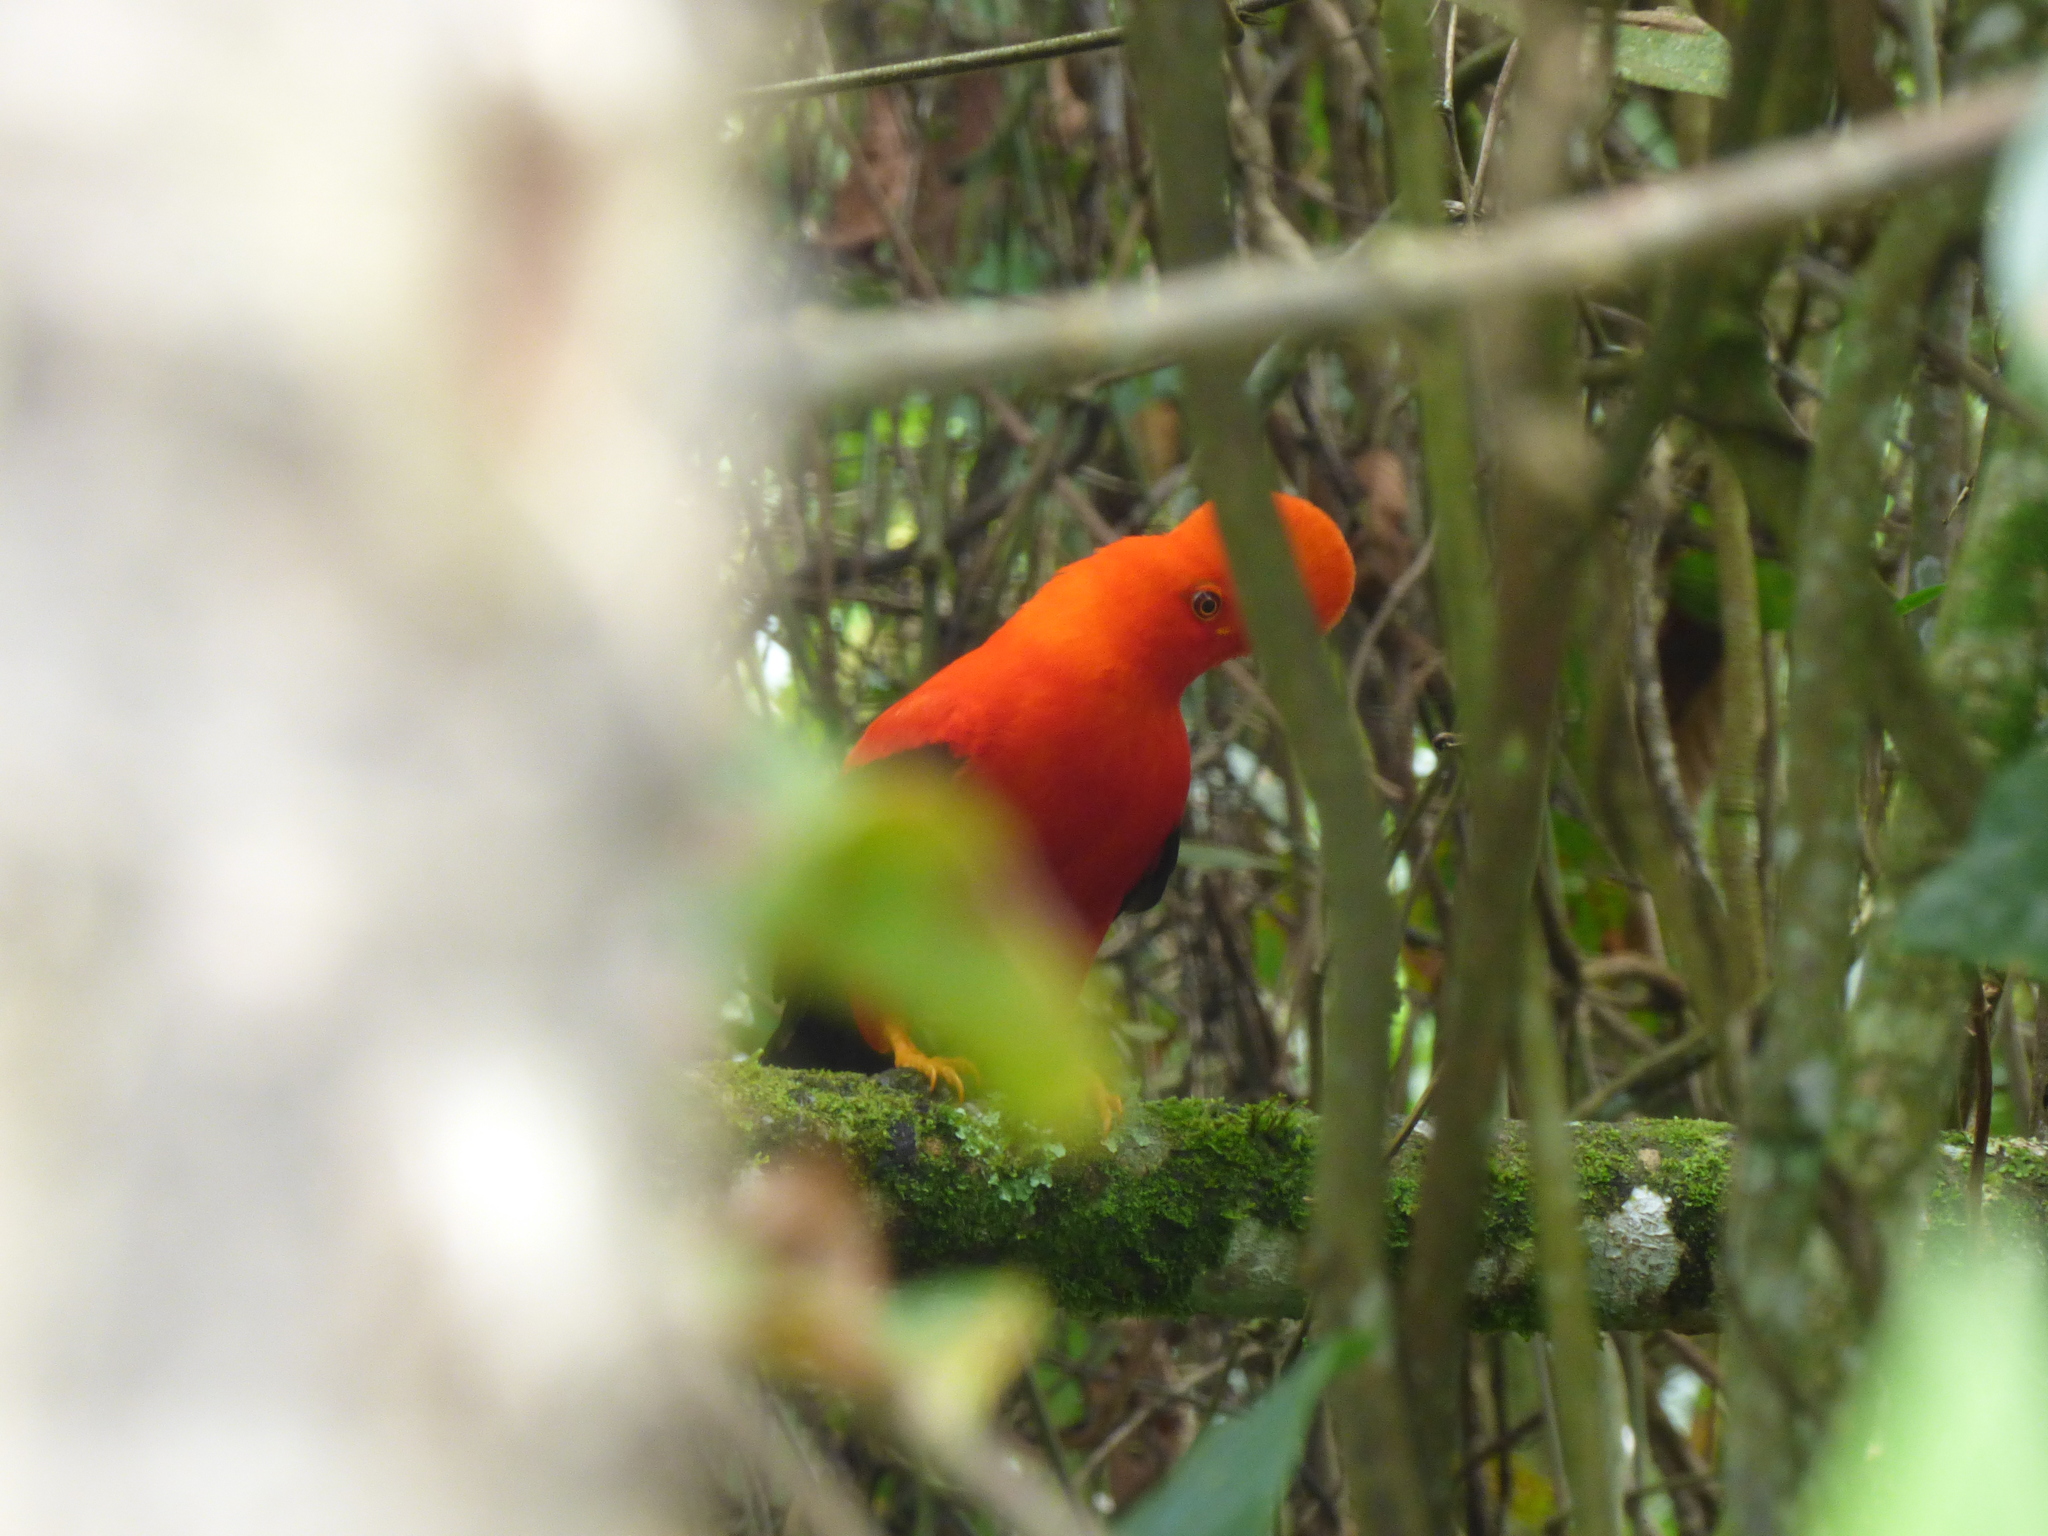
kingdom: Animalia
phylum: Chordata
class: Aves
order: Passeriformes
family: Cotingidae
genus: Rupicola
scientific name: Rupicola peruvianus
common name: Andean cock-of-the-rock
